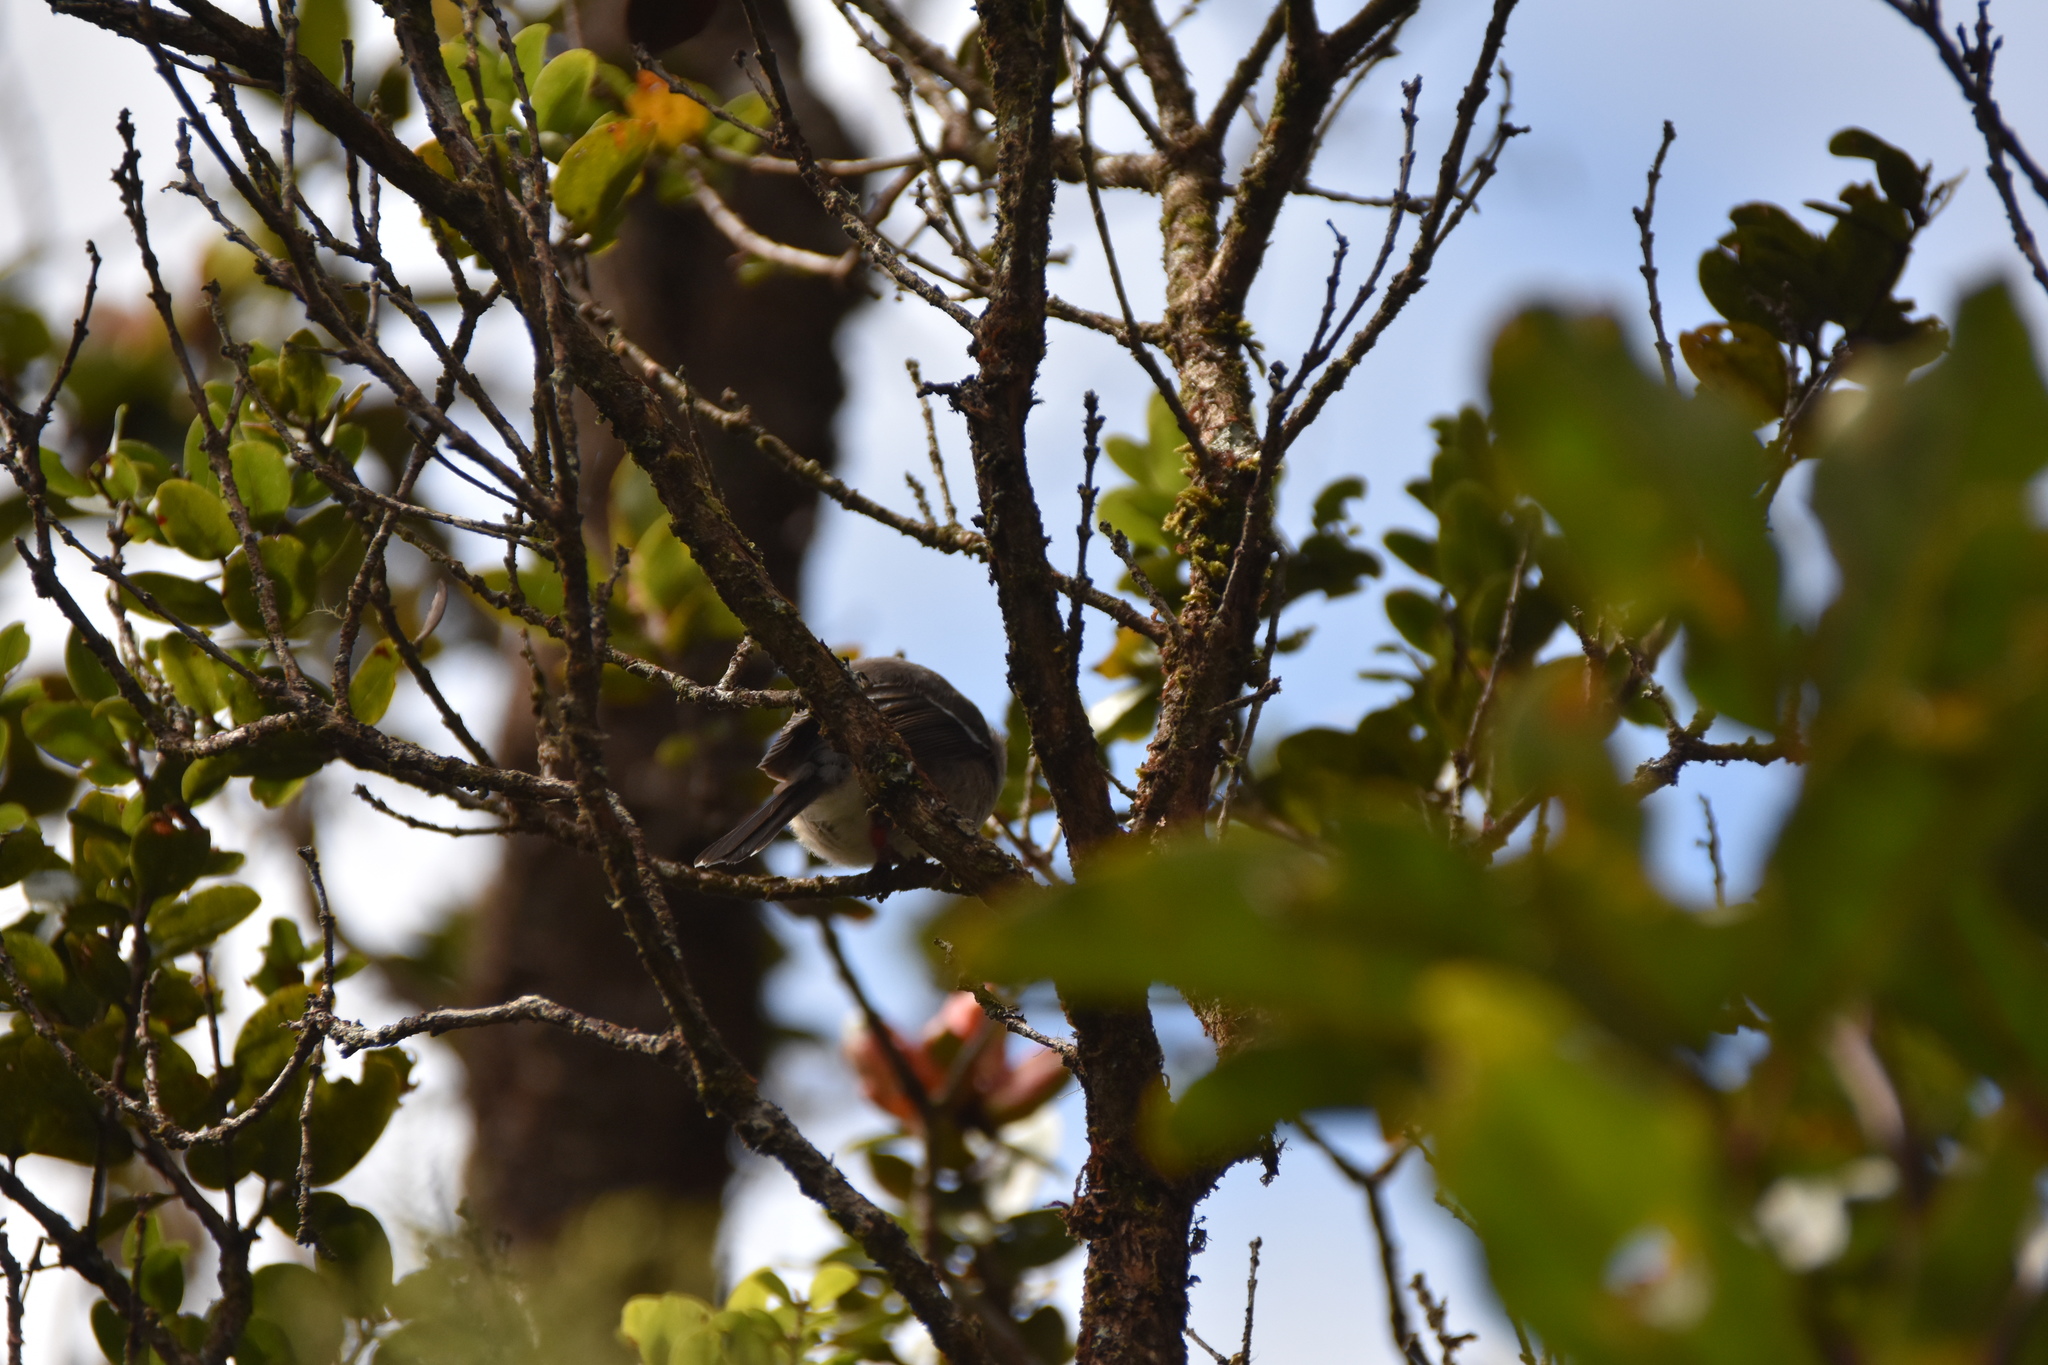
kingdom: Animalia
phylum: Chordata
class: Aves
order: Passeriformes
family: Monarchidae
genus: Chasiempis
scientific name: Chasiempis sclateri
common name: Kauai elepaio
